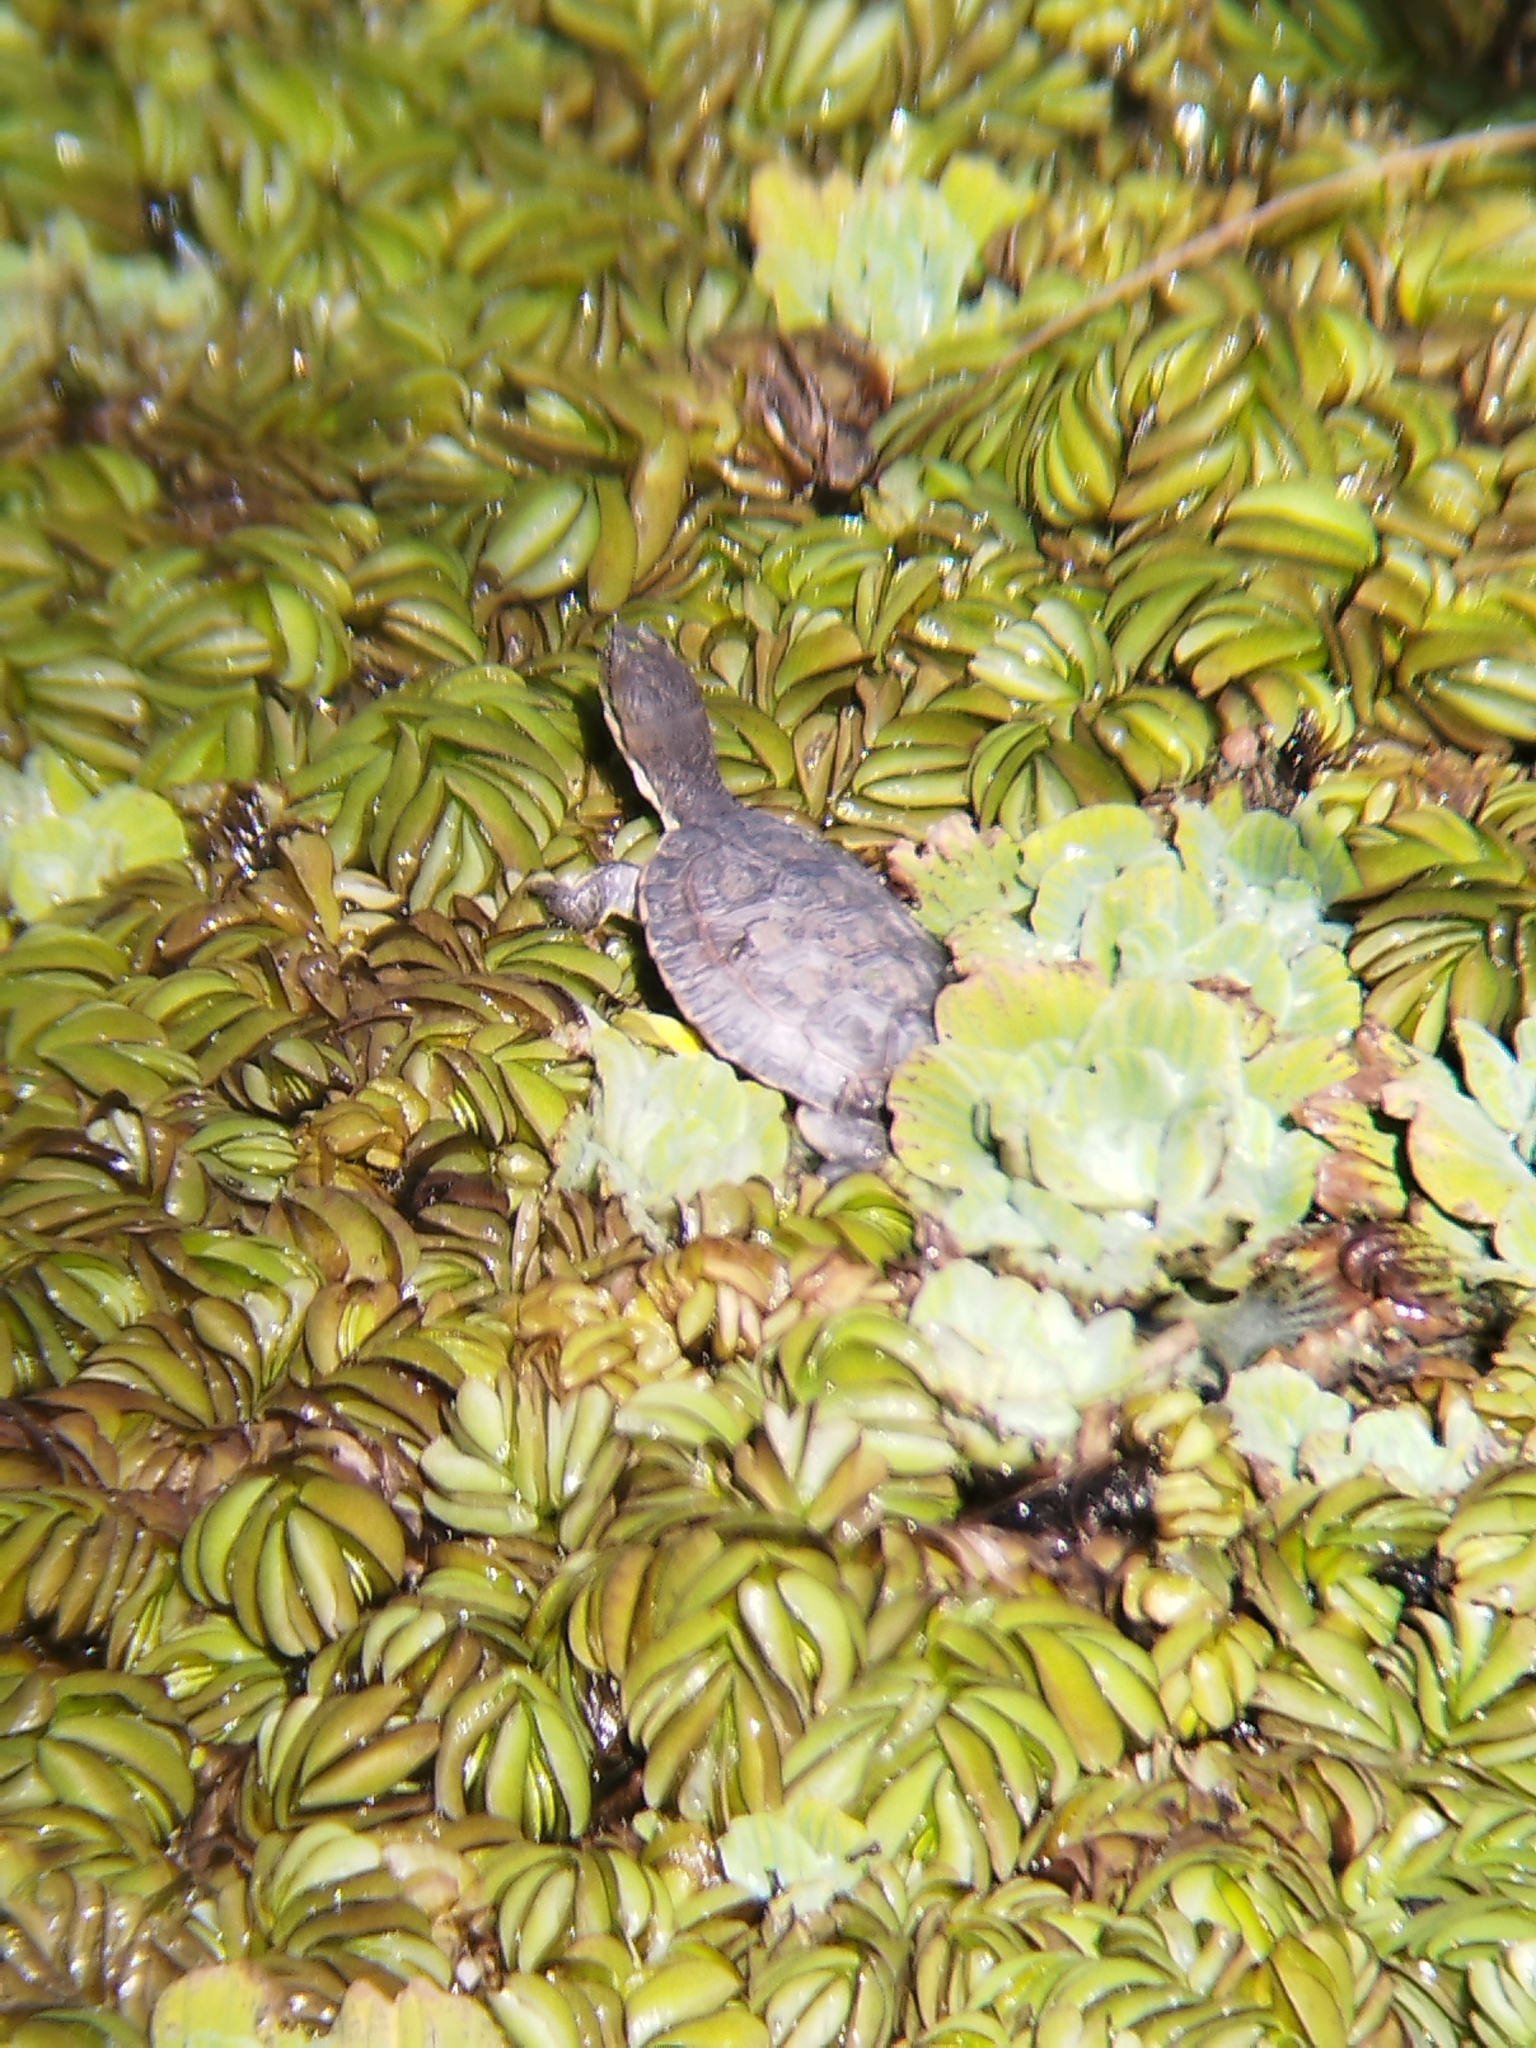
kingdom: Animalia
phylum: Chordata
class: Testudines
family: Chelidae
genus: Phrynops
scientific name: Phrynops hilarii
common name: Side-necked turtle of saint hillaire
